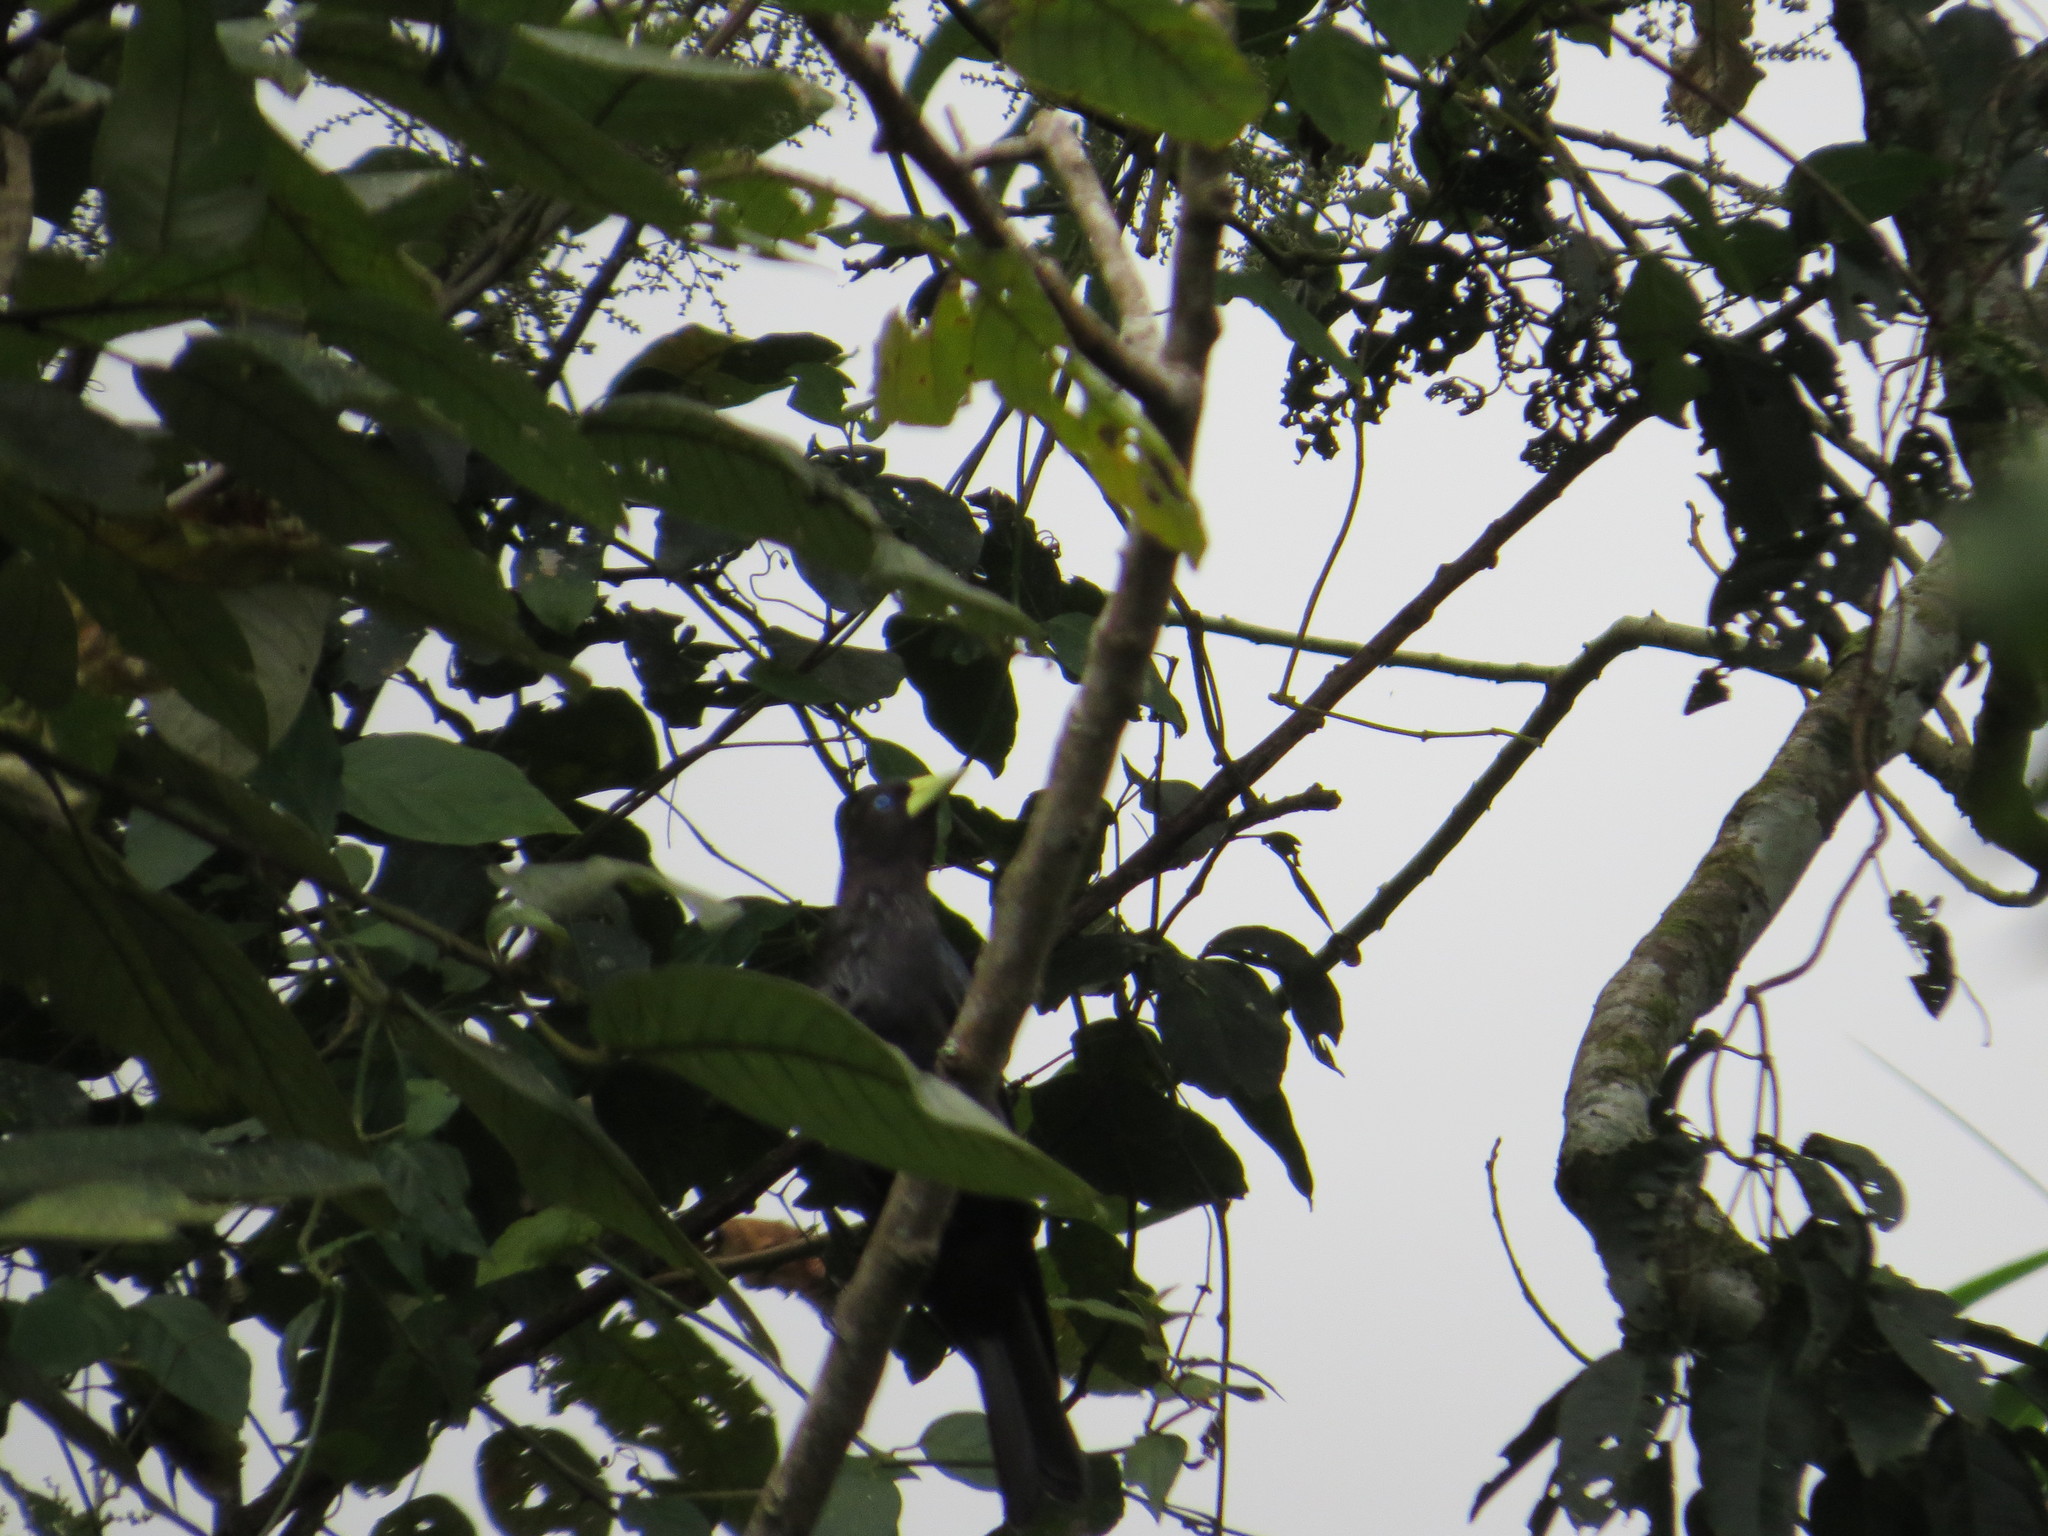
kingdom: Animalia
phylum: Chordata
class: Aves
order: Passeriformes
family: Icteridae
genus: Cacicus
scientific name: Cacicus haemorrhous
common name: Red-rumped cacique
